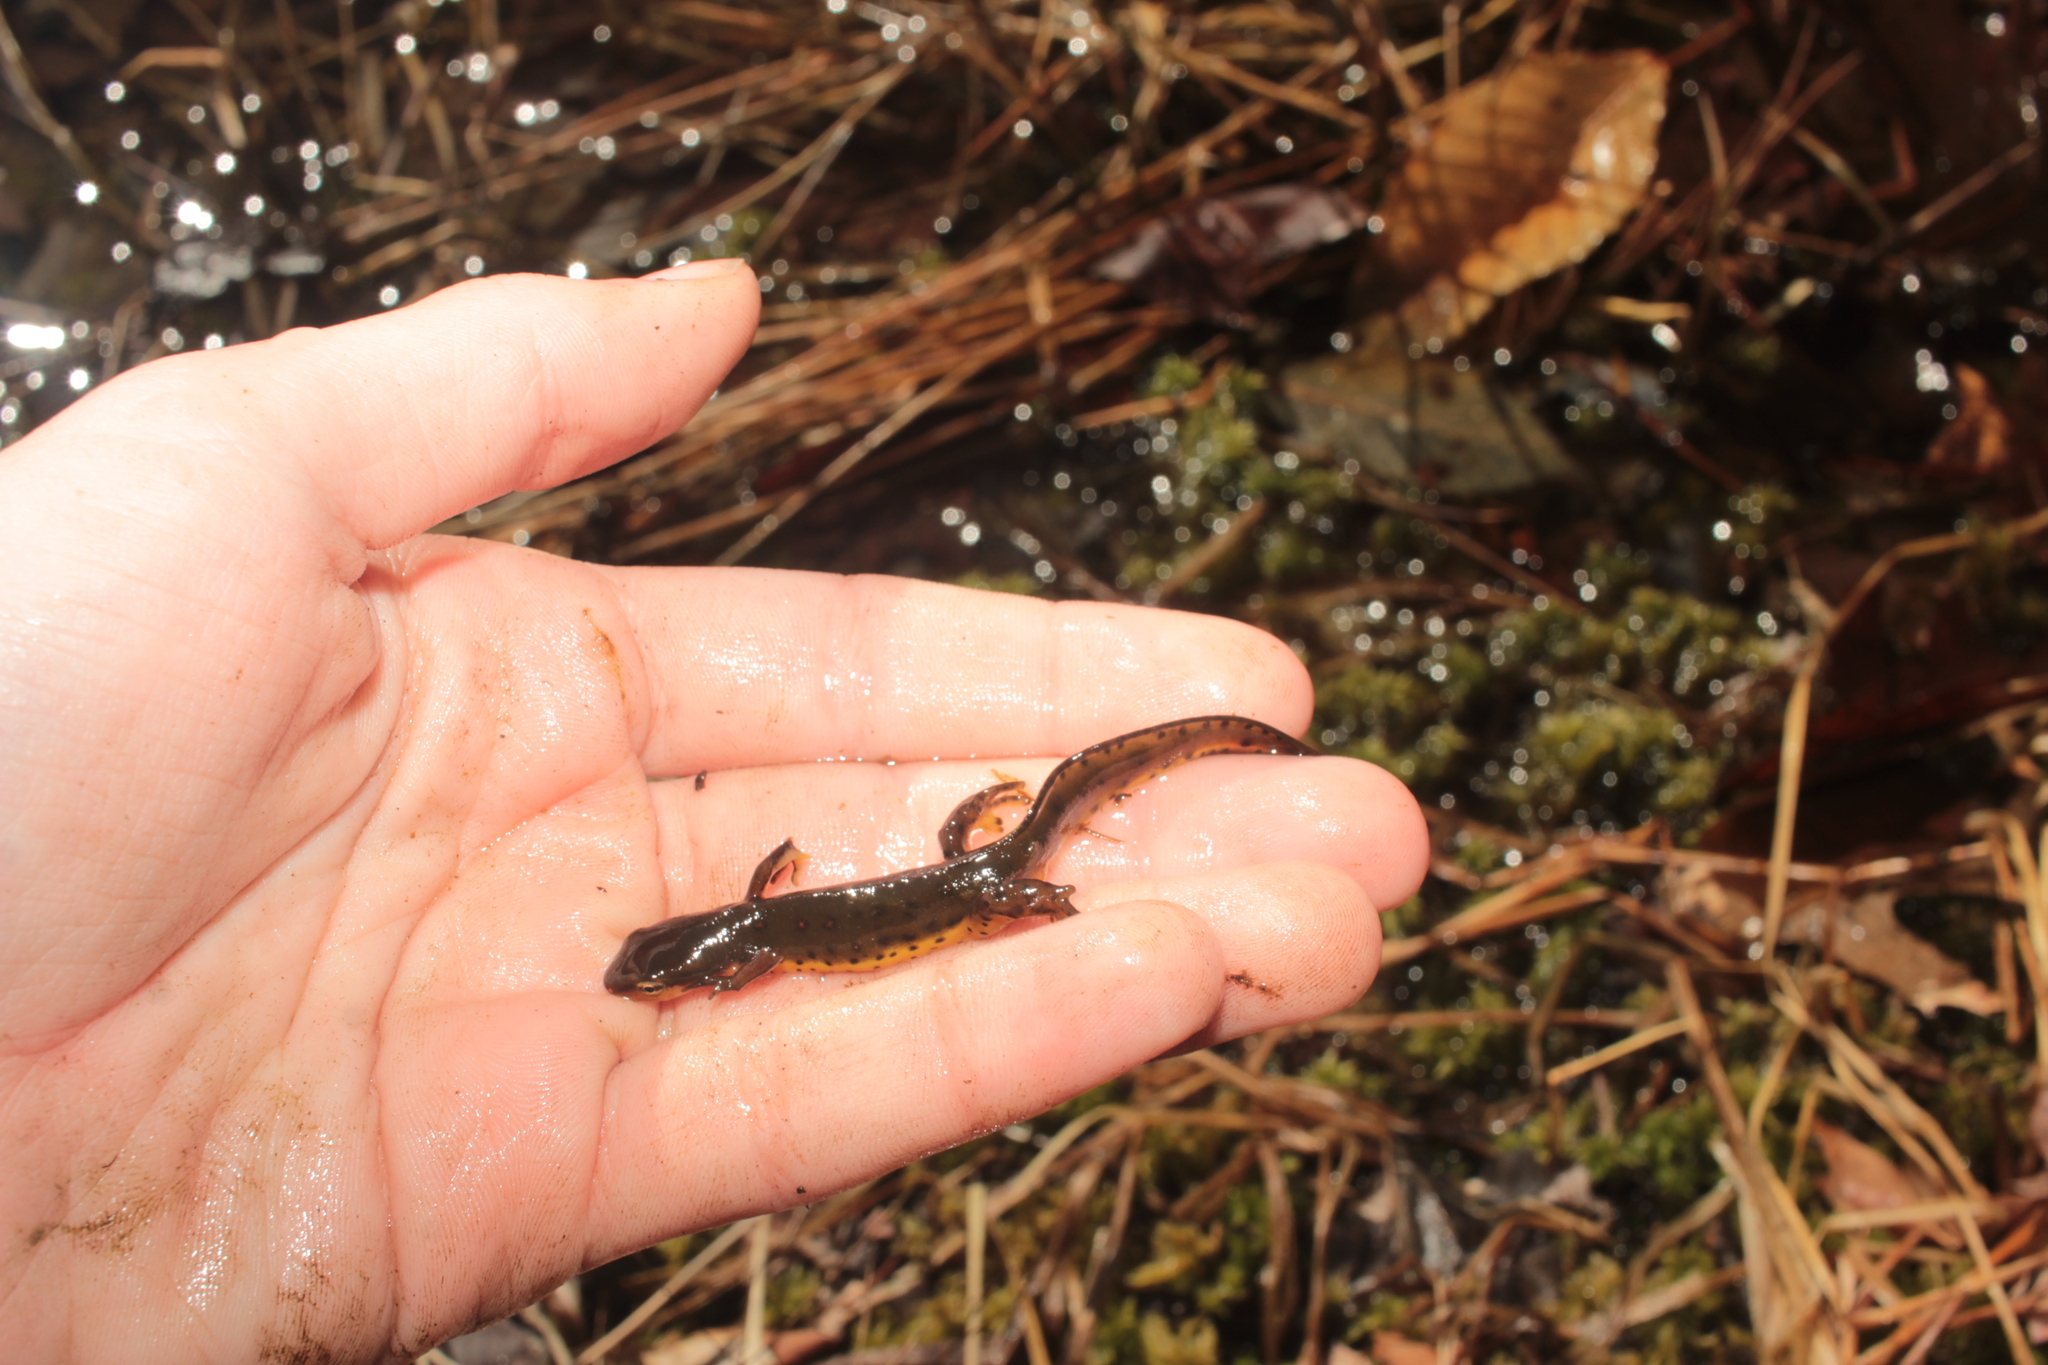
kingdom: Animalia
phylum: Chordata
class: Amphibia
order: Caudata
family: Salamandridae
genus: Notophthalmus
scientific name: Notophthalmus viridescens
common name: Eastern newt
